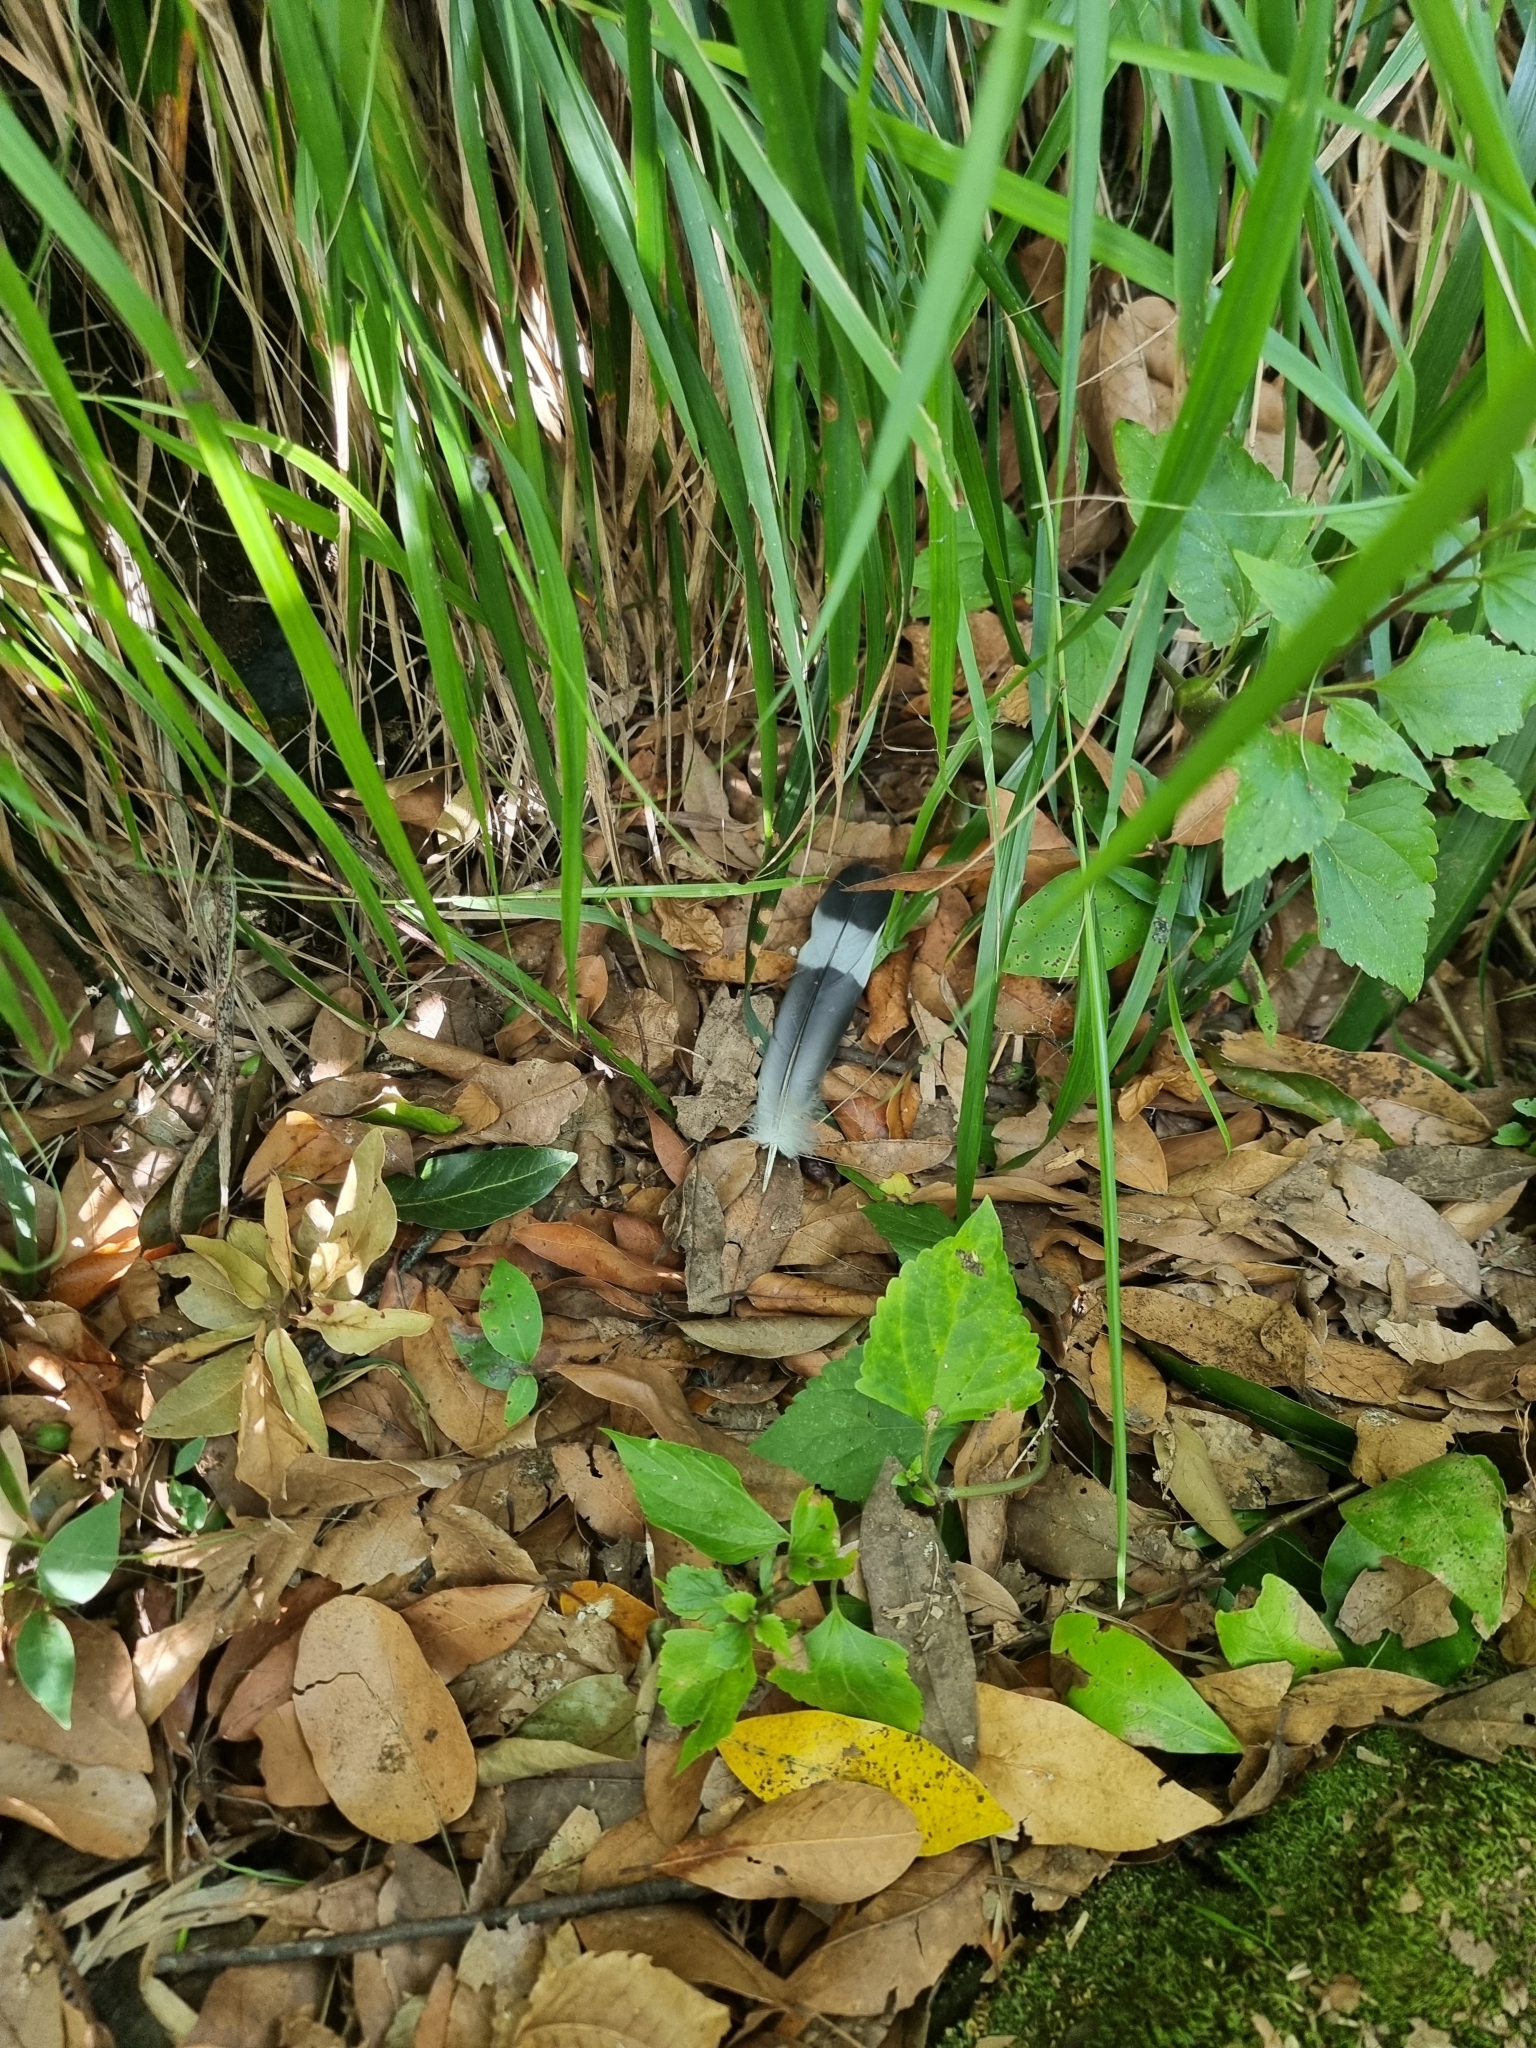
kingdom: Animalia
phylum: Chordata
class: Aves
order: Columbiformes
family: Columbidae
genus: Columba
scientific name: Columba trocaz
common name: Trocaz pigeon
